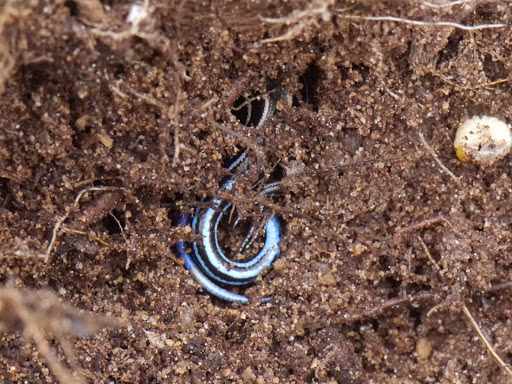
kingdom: Animalia
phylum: Chordata
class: Squamata
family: Scincidae
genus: Plestiodon
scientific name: Plestiodon fasciatus
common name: Five-lined skink
